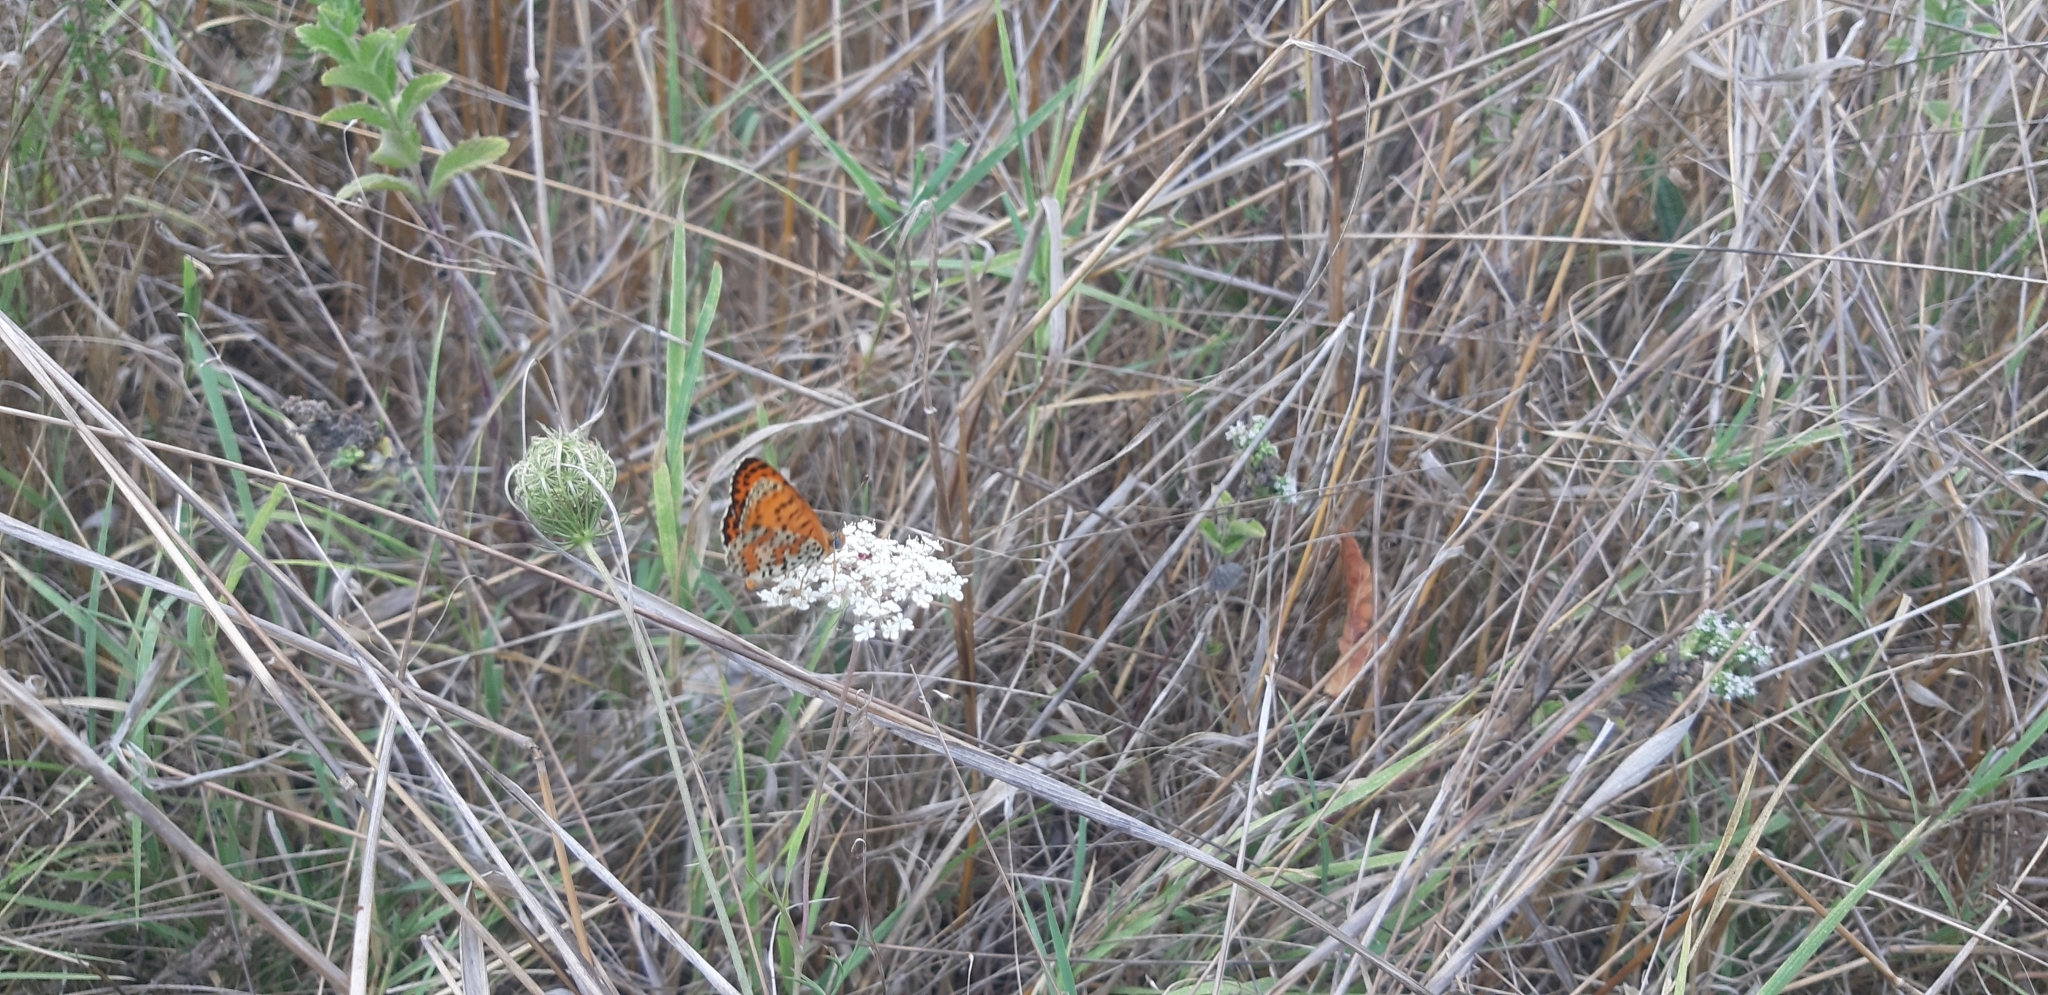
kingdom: Animalia
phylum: Arthropoda
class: Insecta
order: Lepidoptera
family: Nymphalidae
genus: Melitaea
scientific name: Melitaea didyma
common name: Spotted fritillary
